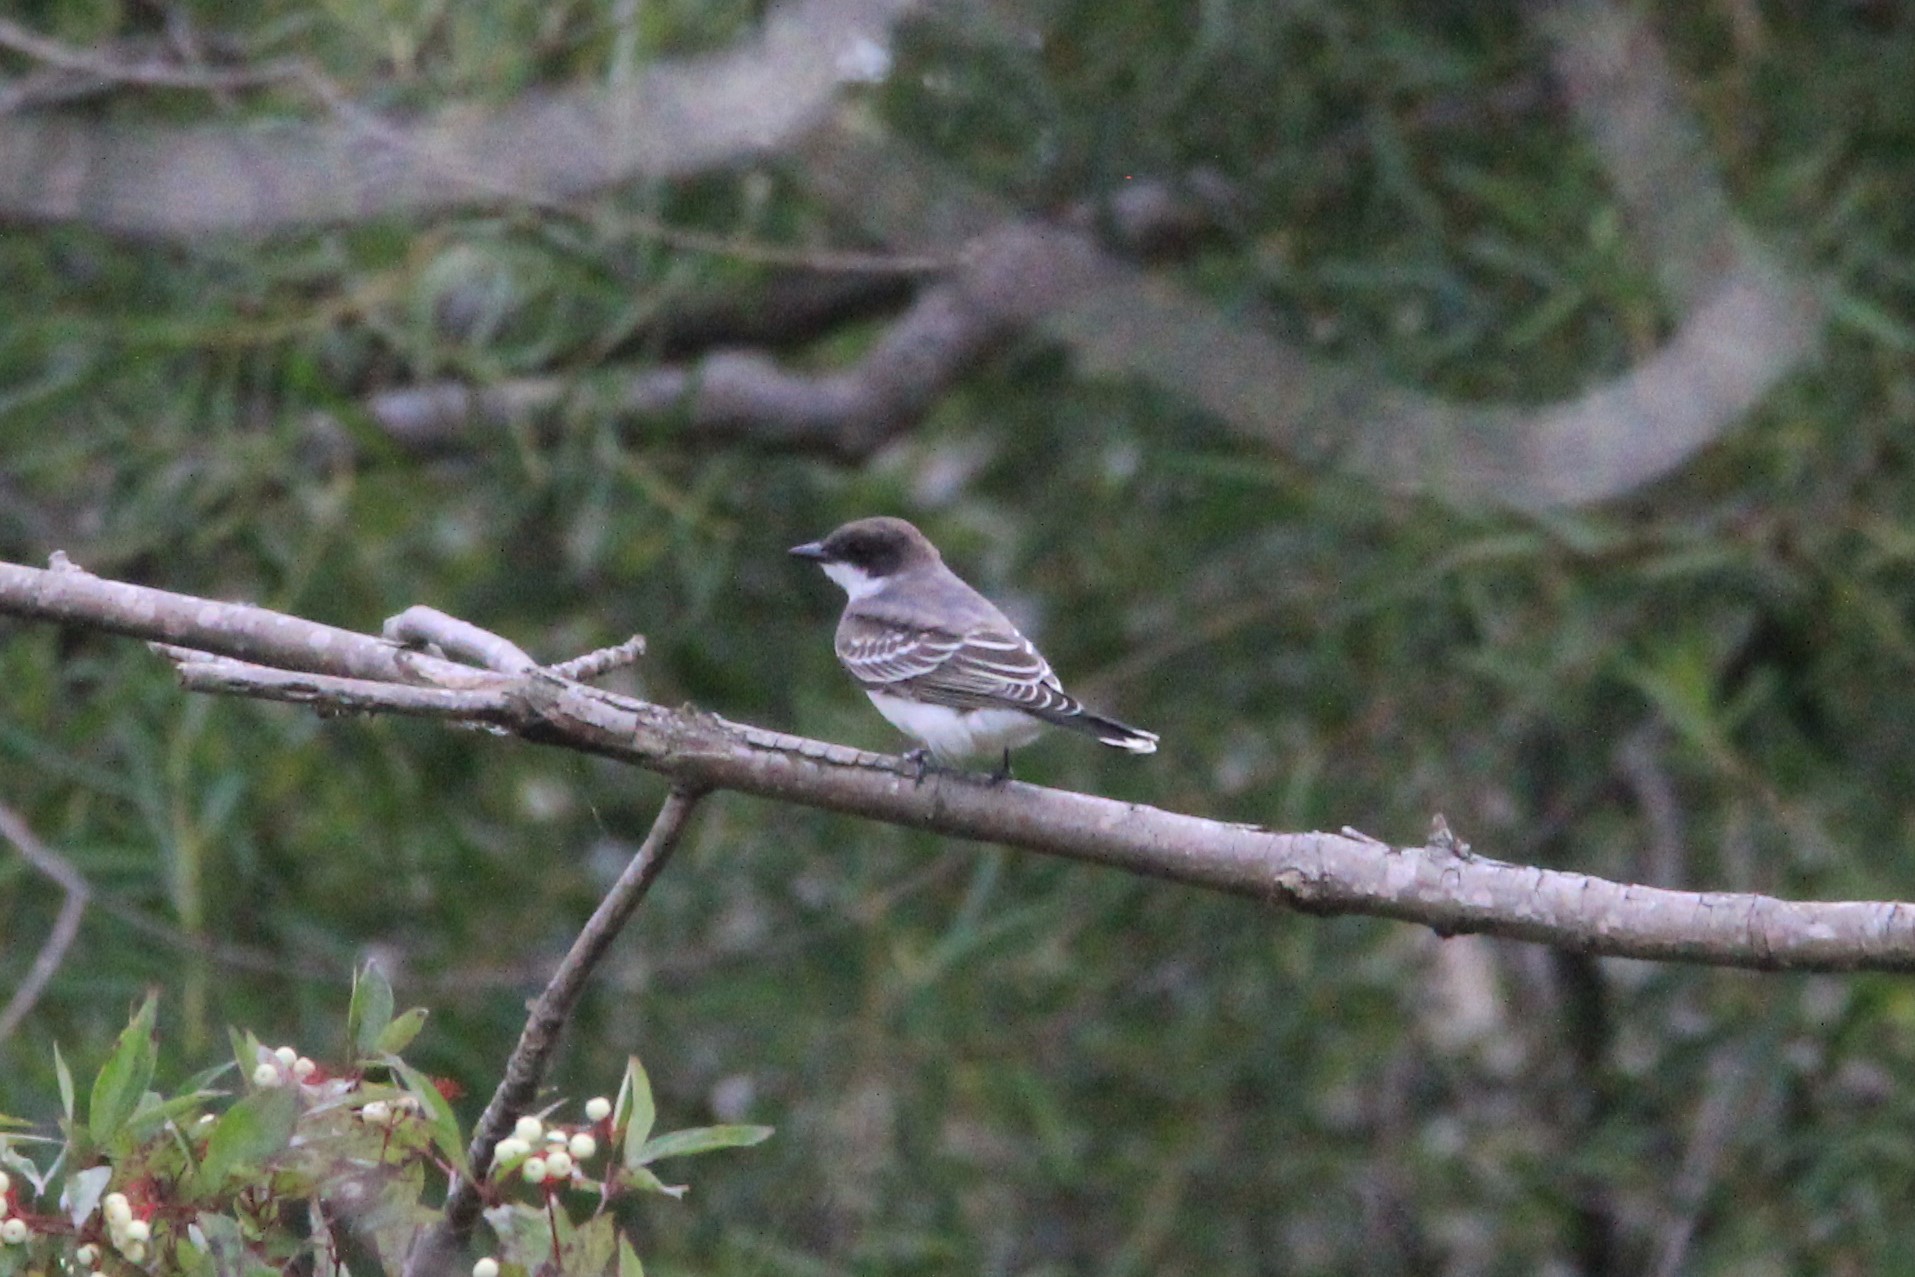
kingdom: Animalia
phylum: Chordata
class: Aves
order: Passeriformes
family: Tyrannidae
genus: Tyrannus
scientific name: Tyrannus tyrannus
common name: Eastern kingbird
